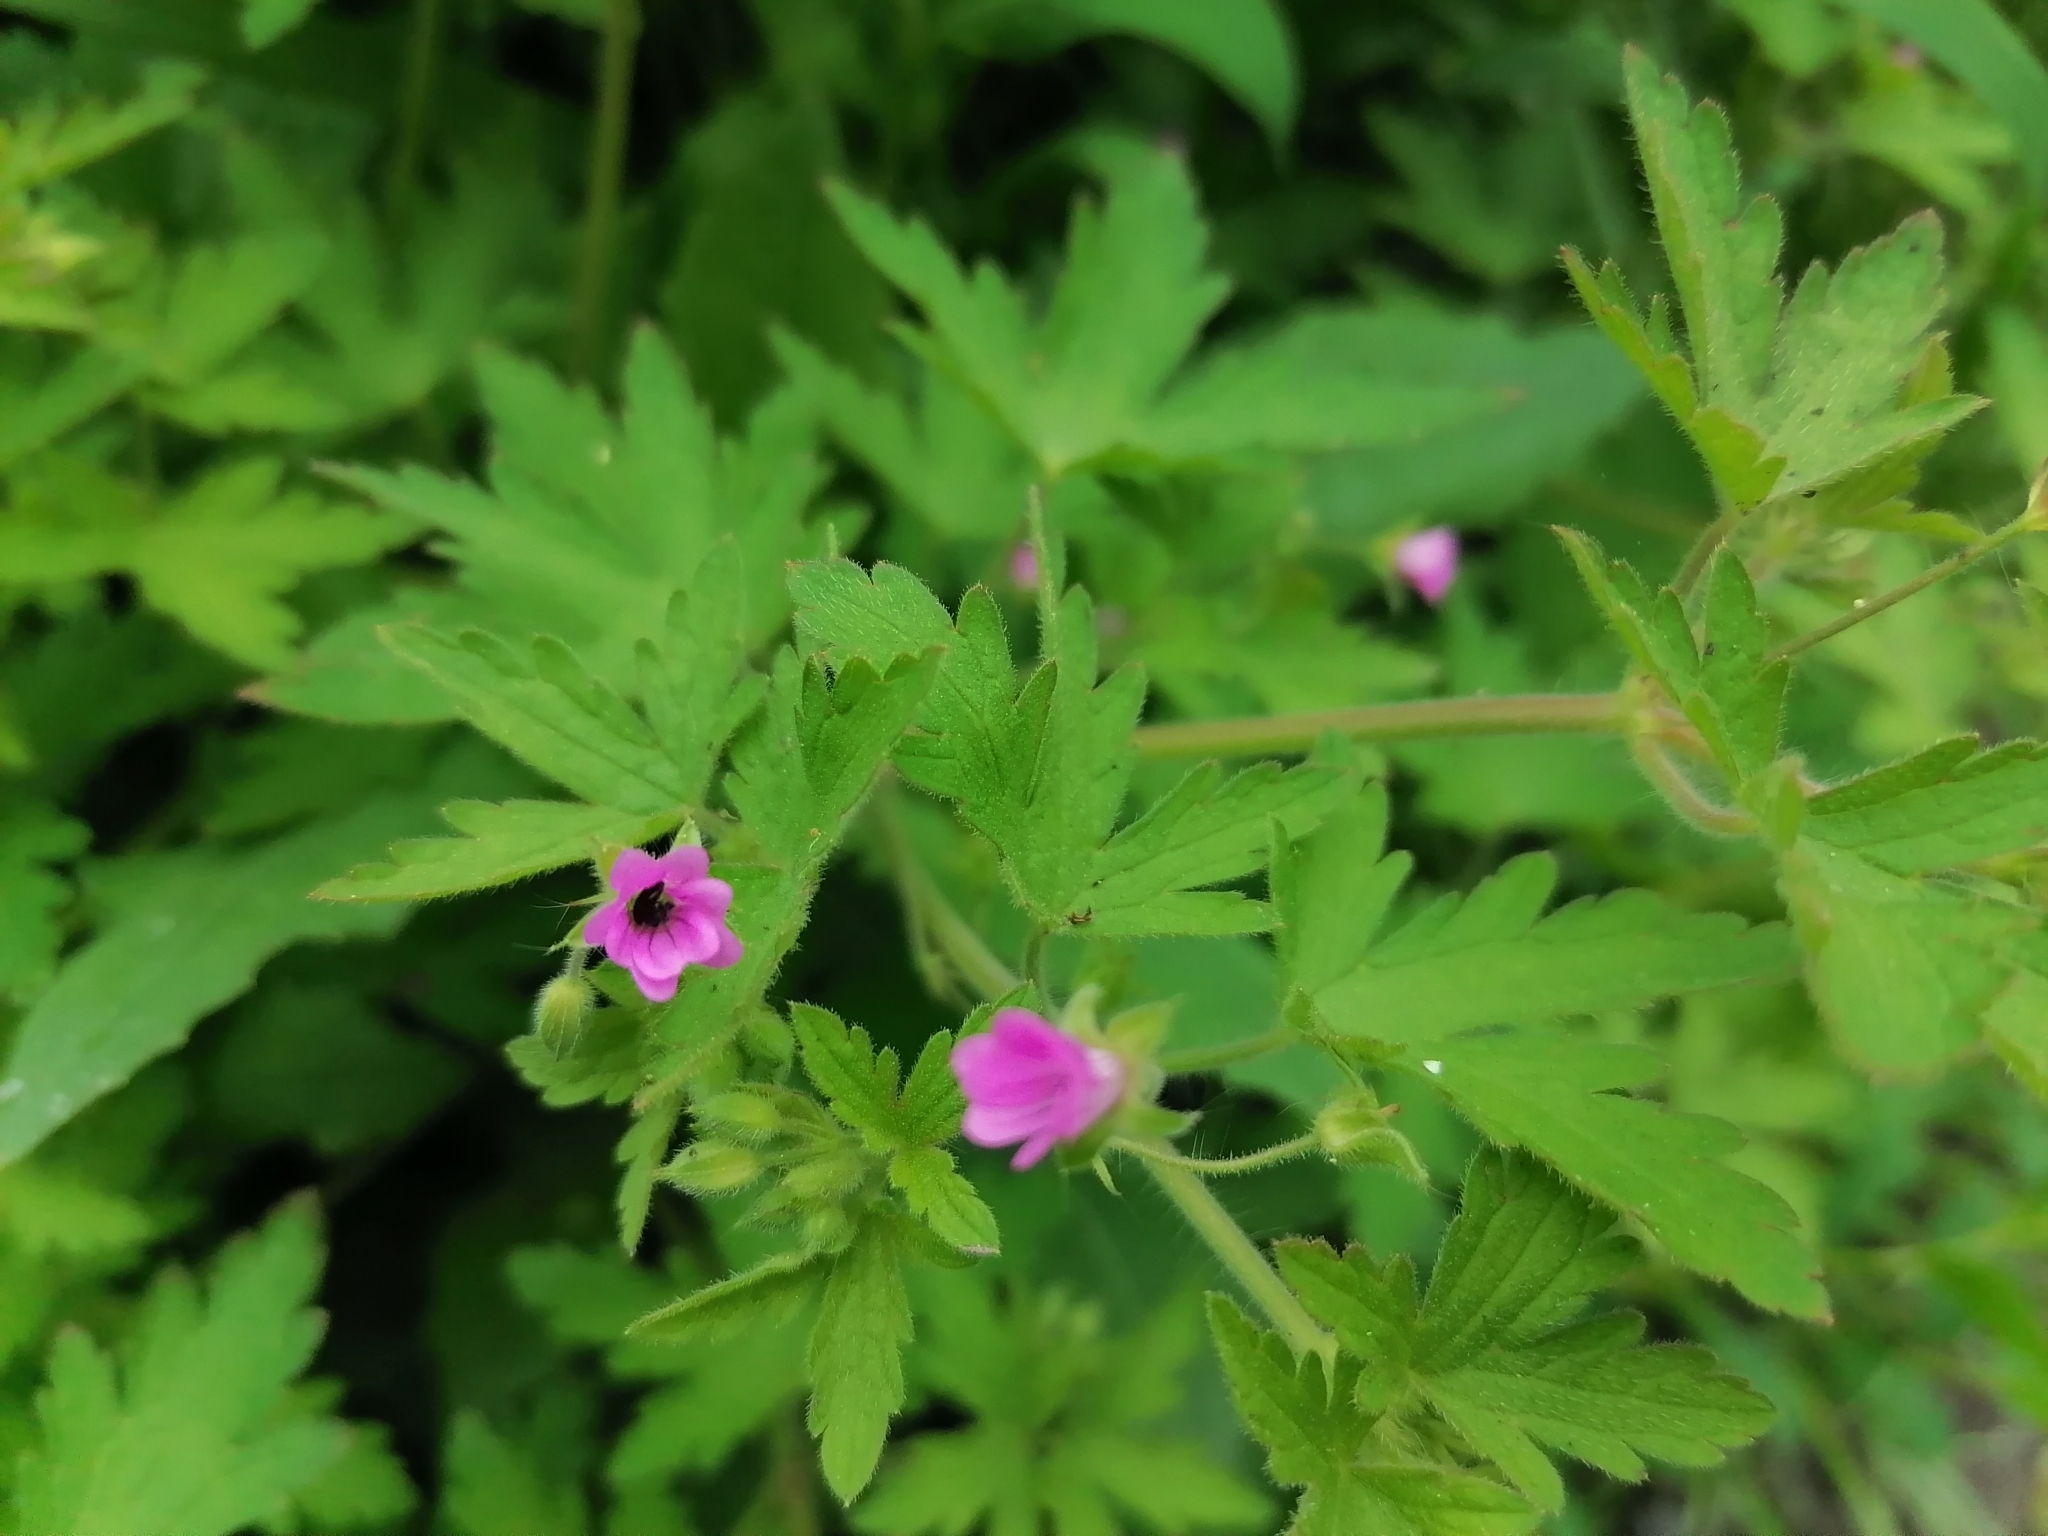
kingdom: Plantae
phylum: Tracheophyta
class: Magnoliopsida
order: Geraniales
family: Geraniaceae
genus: Geranium
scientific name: Geranium divaricatum
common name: Spreading crane's-bill
